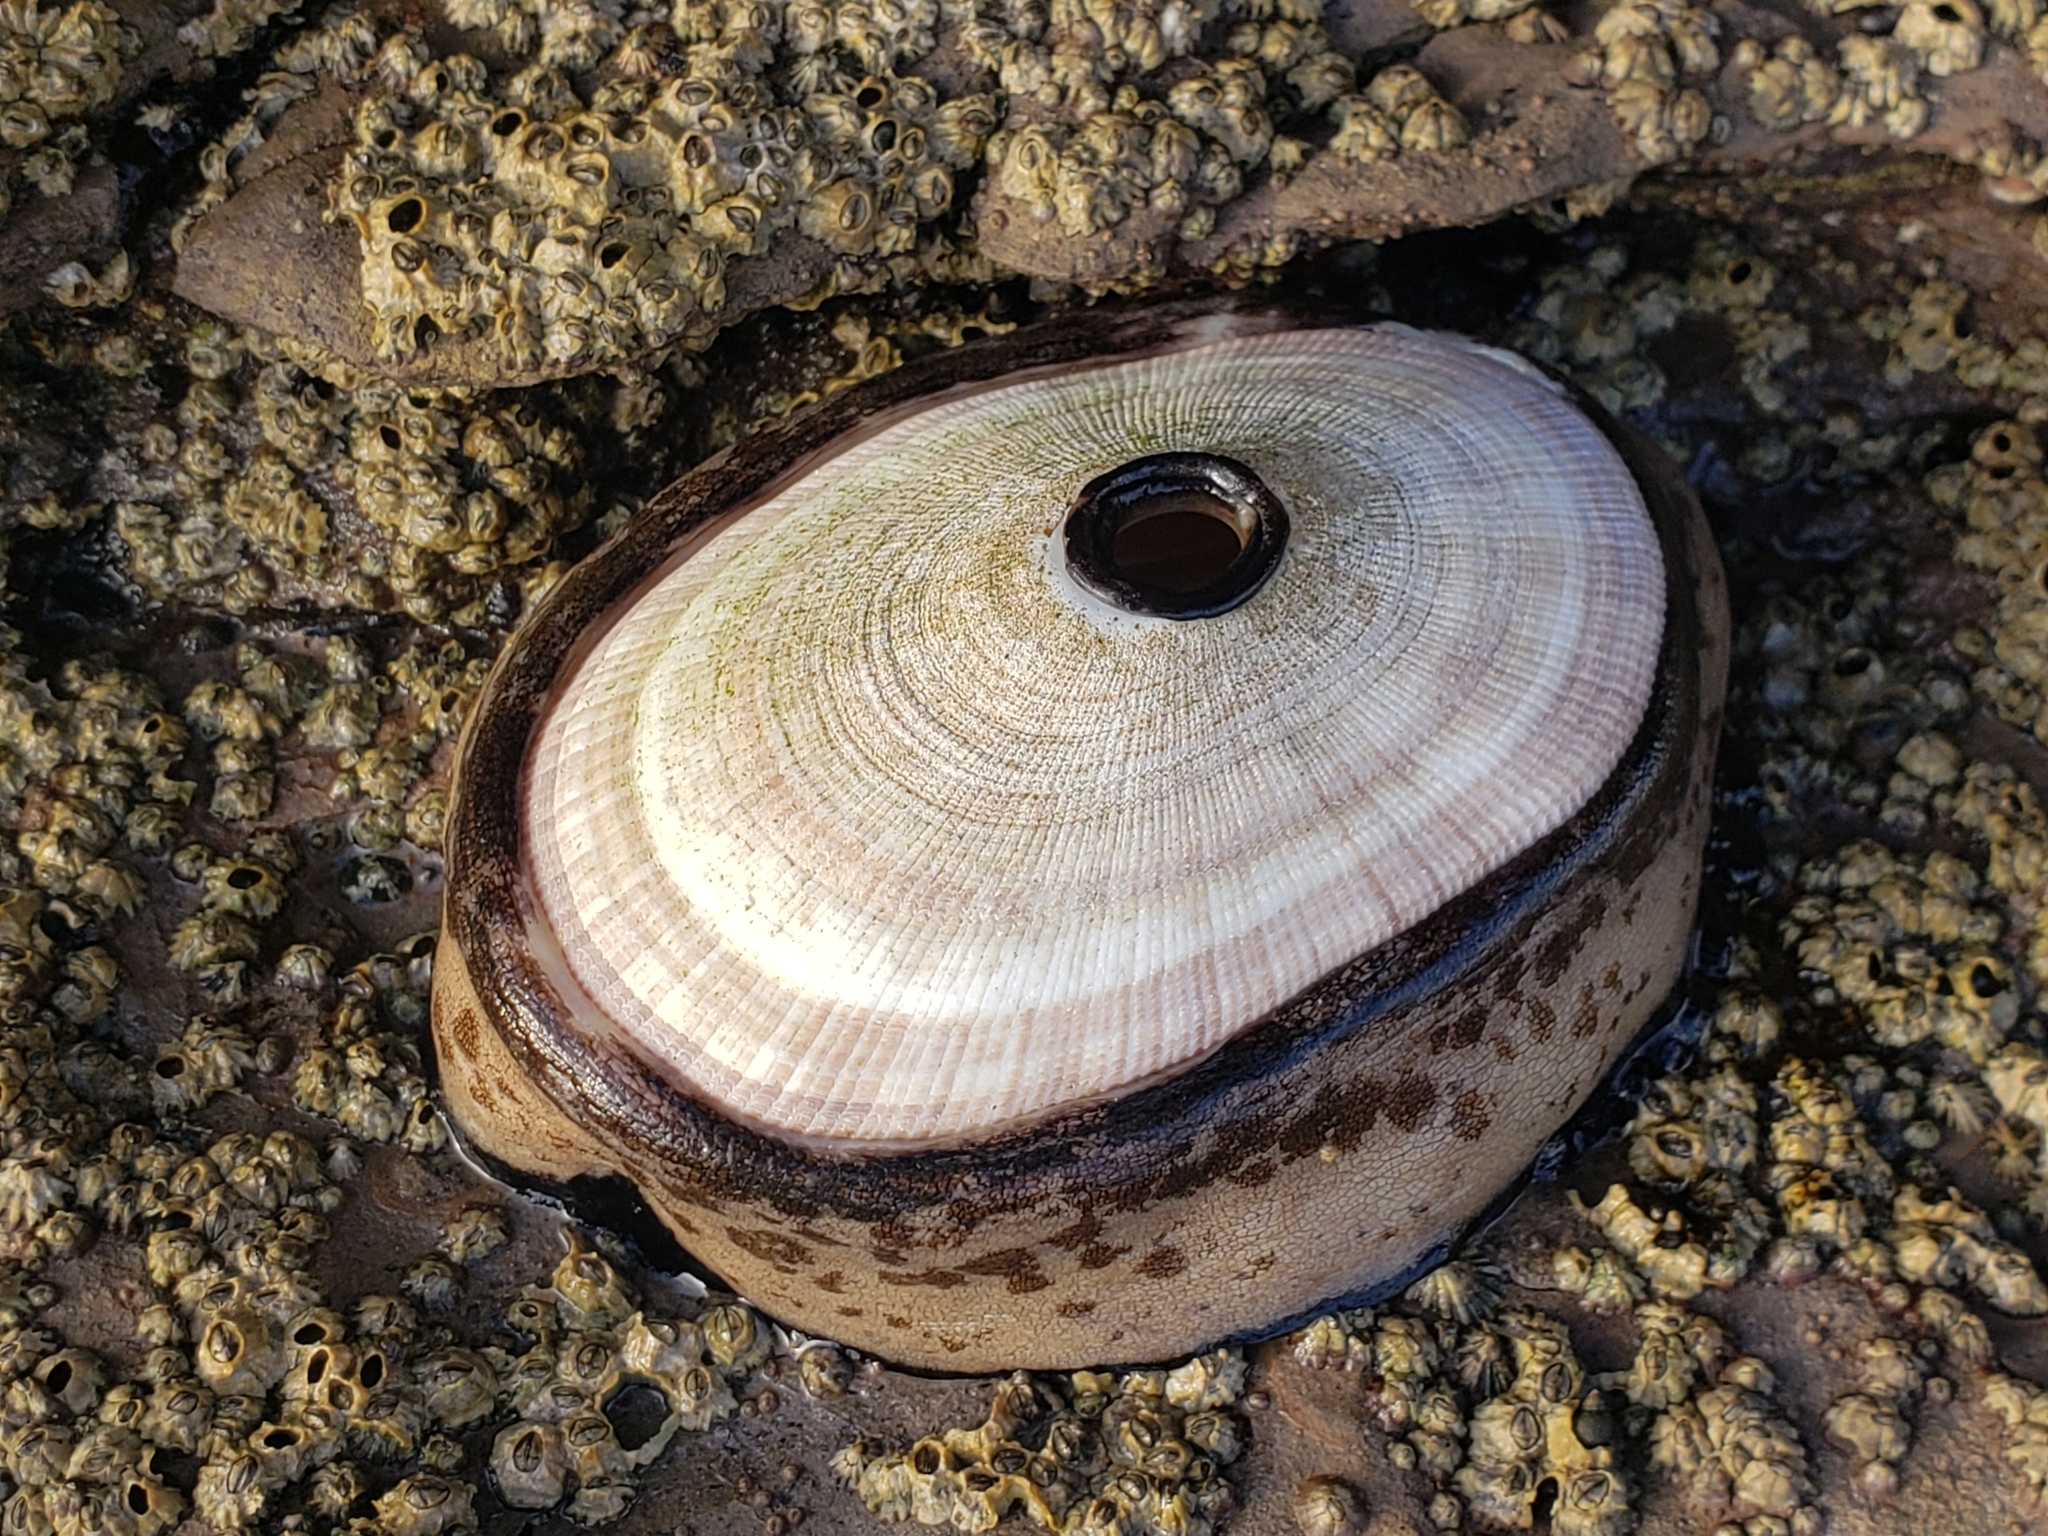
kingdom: Animalia
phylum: Mollusca
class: Gastropoda
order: Lepetellida
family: Fissurellidae
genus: Megathura
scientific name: Megathura crenulata
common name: Giant keyhole limpet
